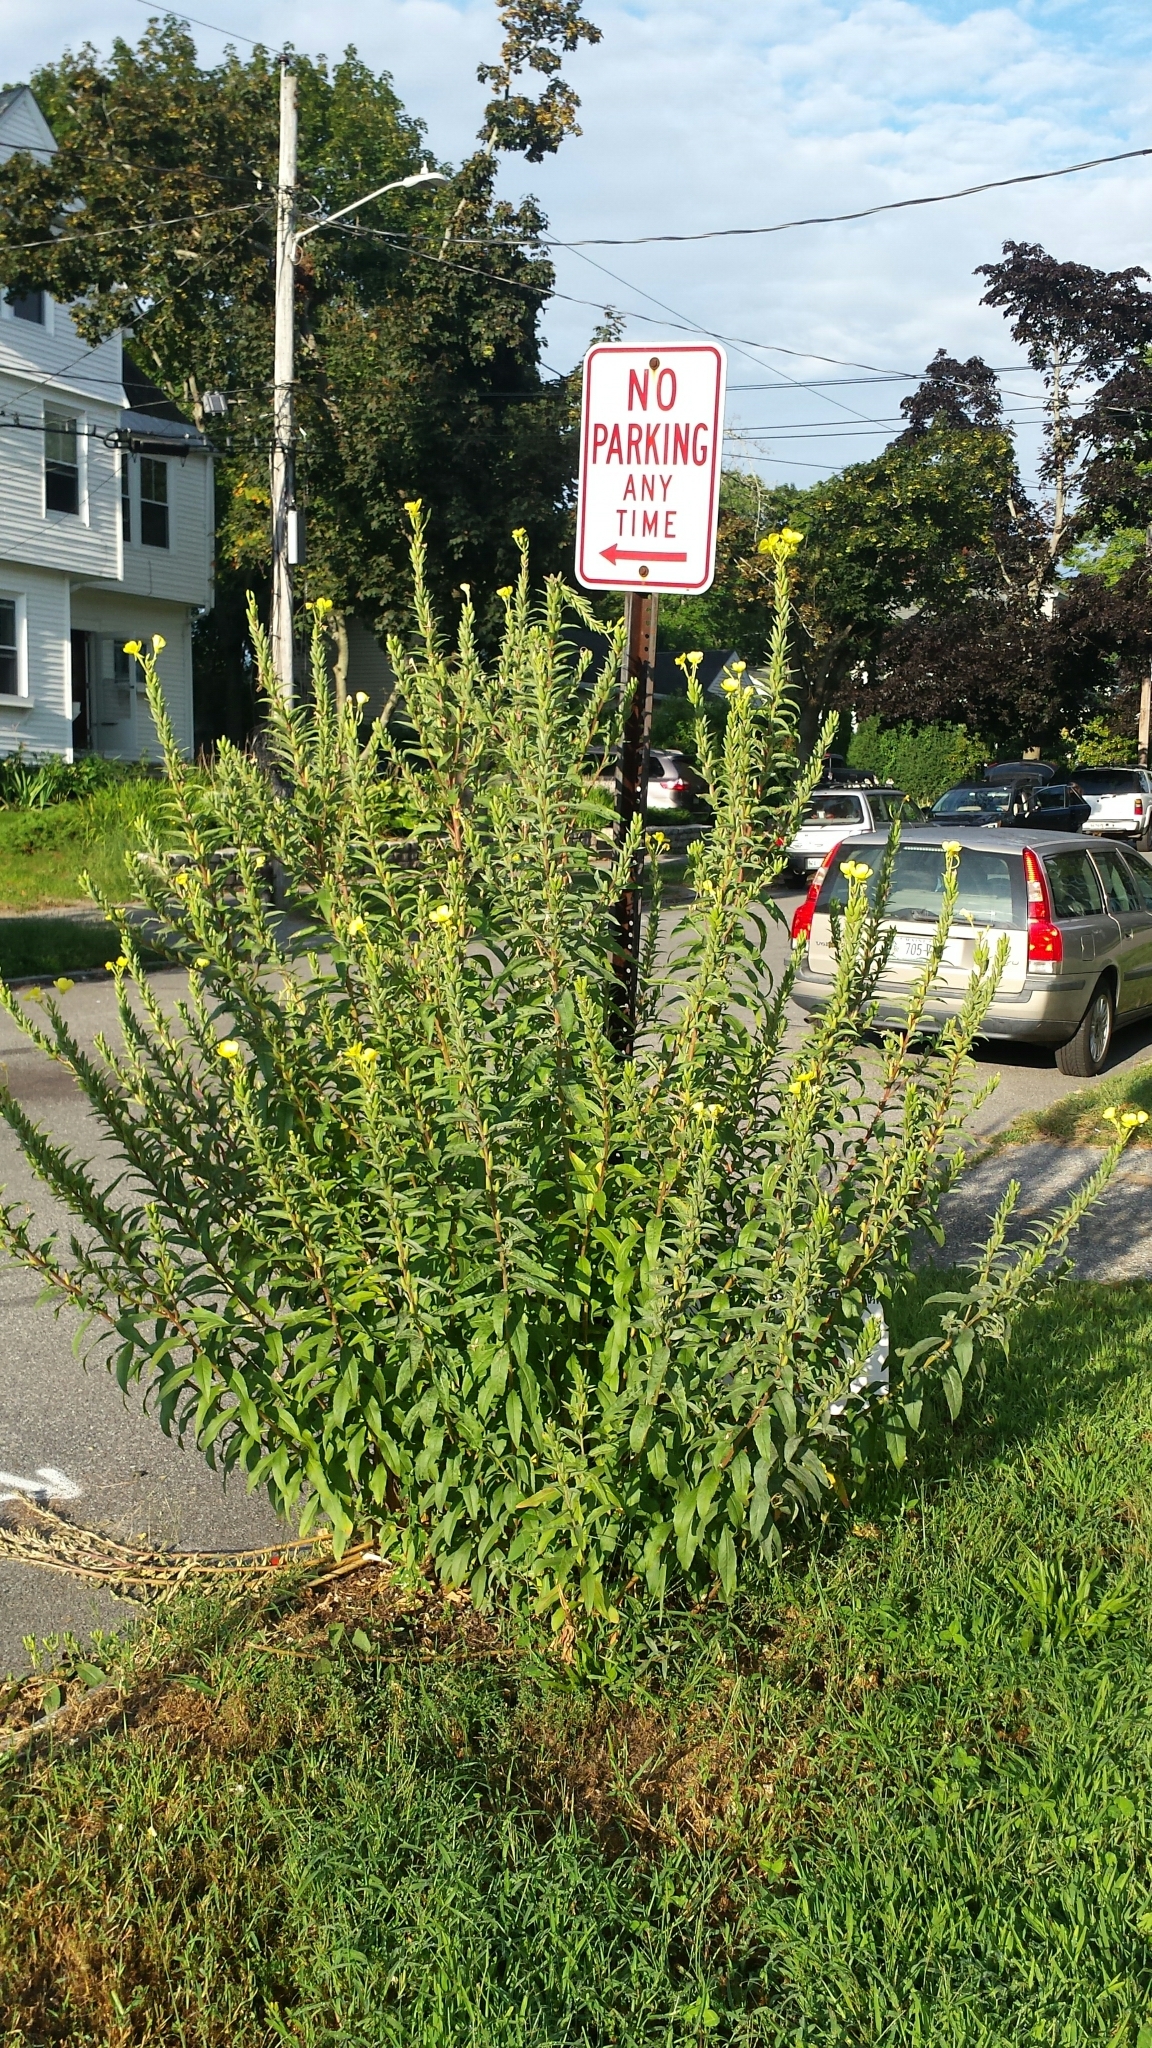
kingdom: Plantae
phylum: Tracheophyta
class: Magnoliopsida
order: Myrtales
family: Onagraceae
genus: Oenothera
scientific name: Oenothera biennis
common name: Common evening-primrose
